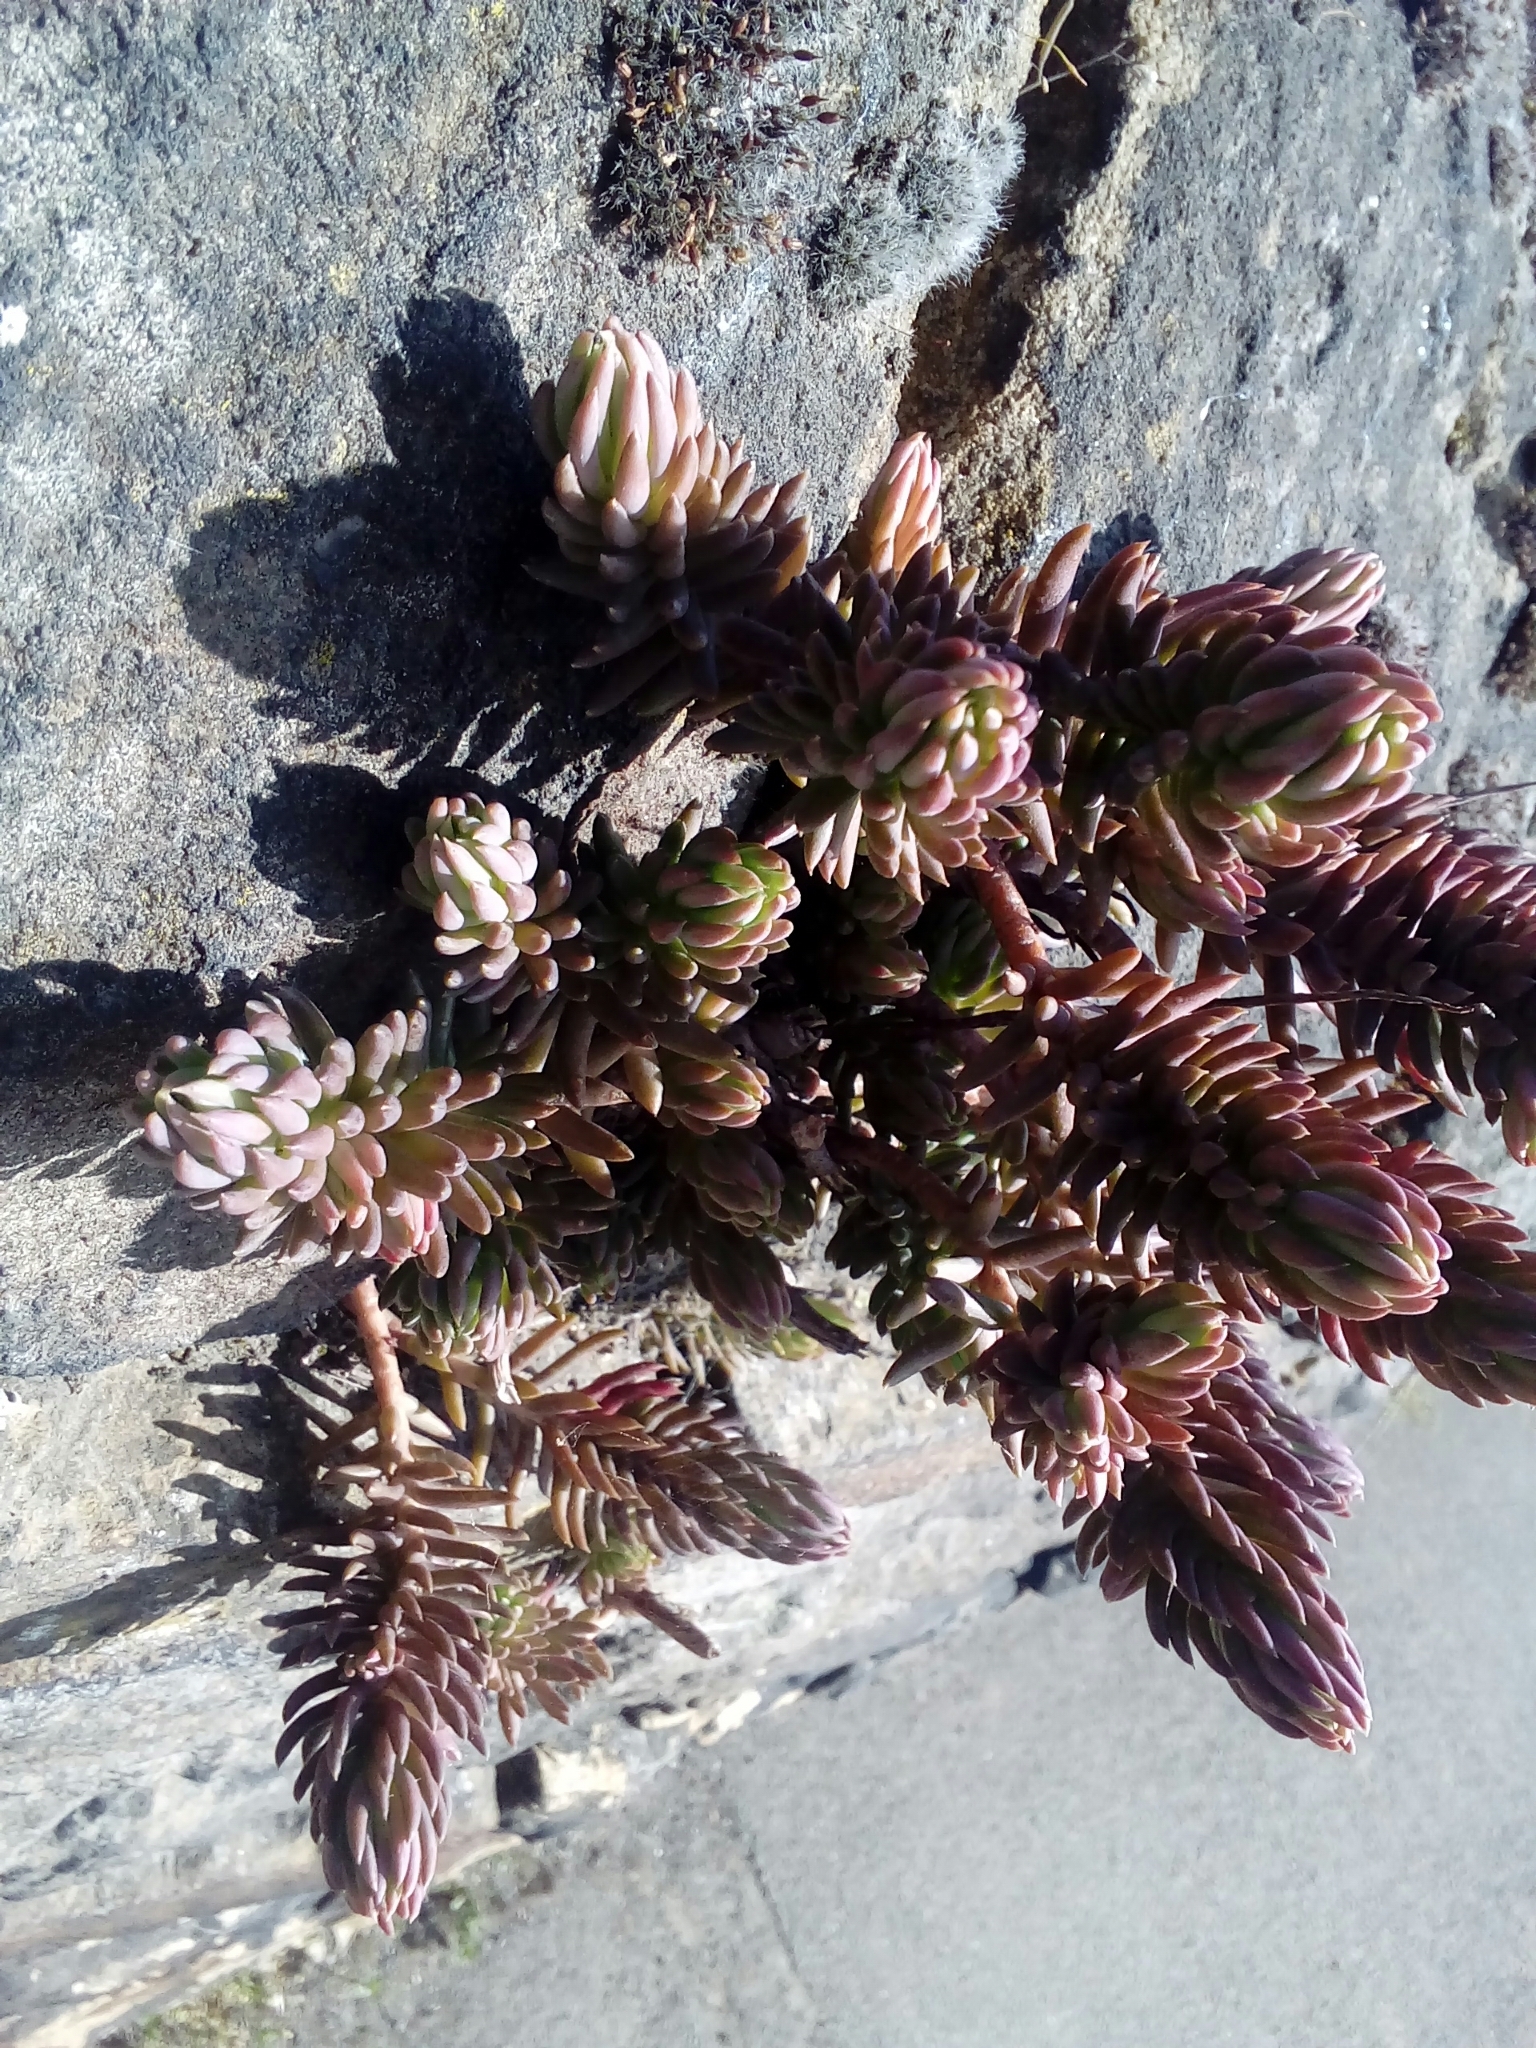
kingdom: Plantae
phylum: Tracheophyta
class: Magnoliopsida
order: Saxifragales
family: Crassulaceae
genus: Petrosedum
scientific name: Petrosedum rupestre
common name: Jenny's stonecrop
